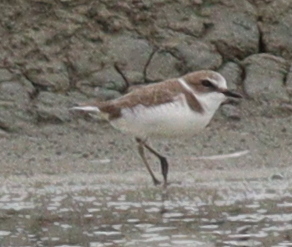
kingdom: Animalia
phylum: Chordata
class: Aves
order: Charadriiformes
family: Charadriidae
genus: Charadrius
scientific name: Charadrius alexandrinus
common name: Kentish plover
